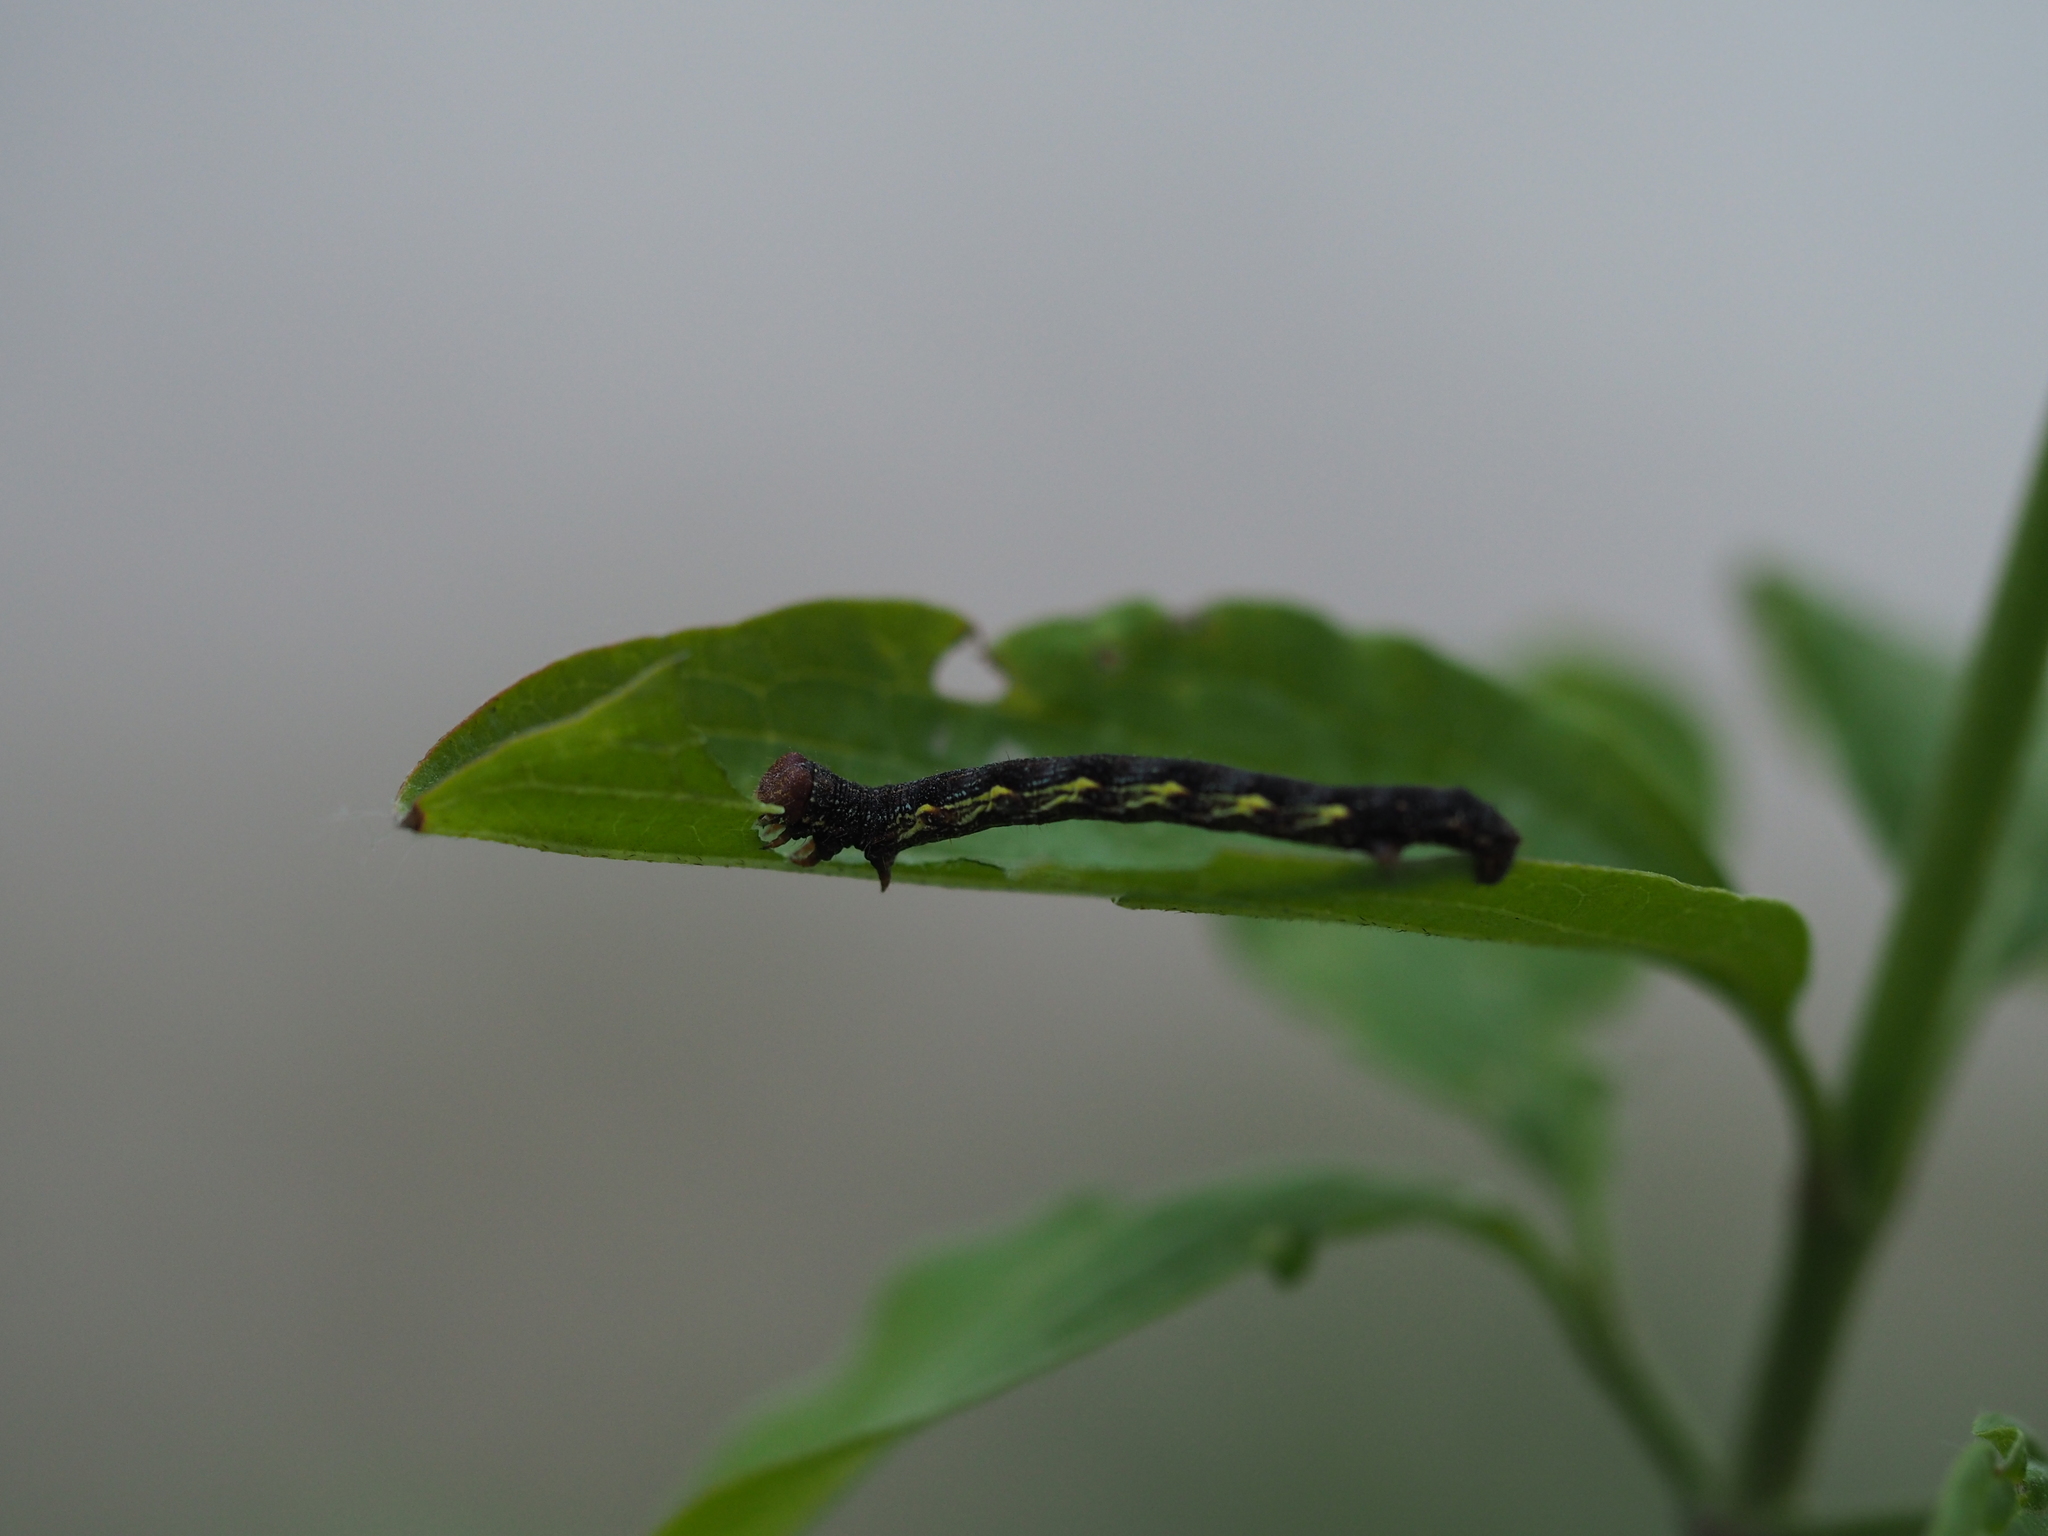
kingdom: Animalia
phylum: Arthropoda
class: Insecta
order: Lepidoptera
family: Geometridae
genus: Erannis
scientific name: Erannis defoliaria
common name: Mottled umber
